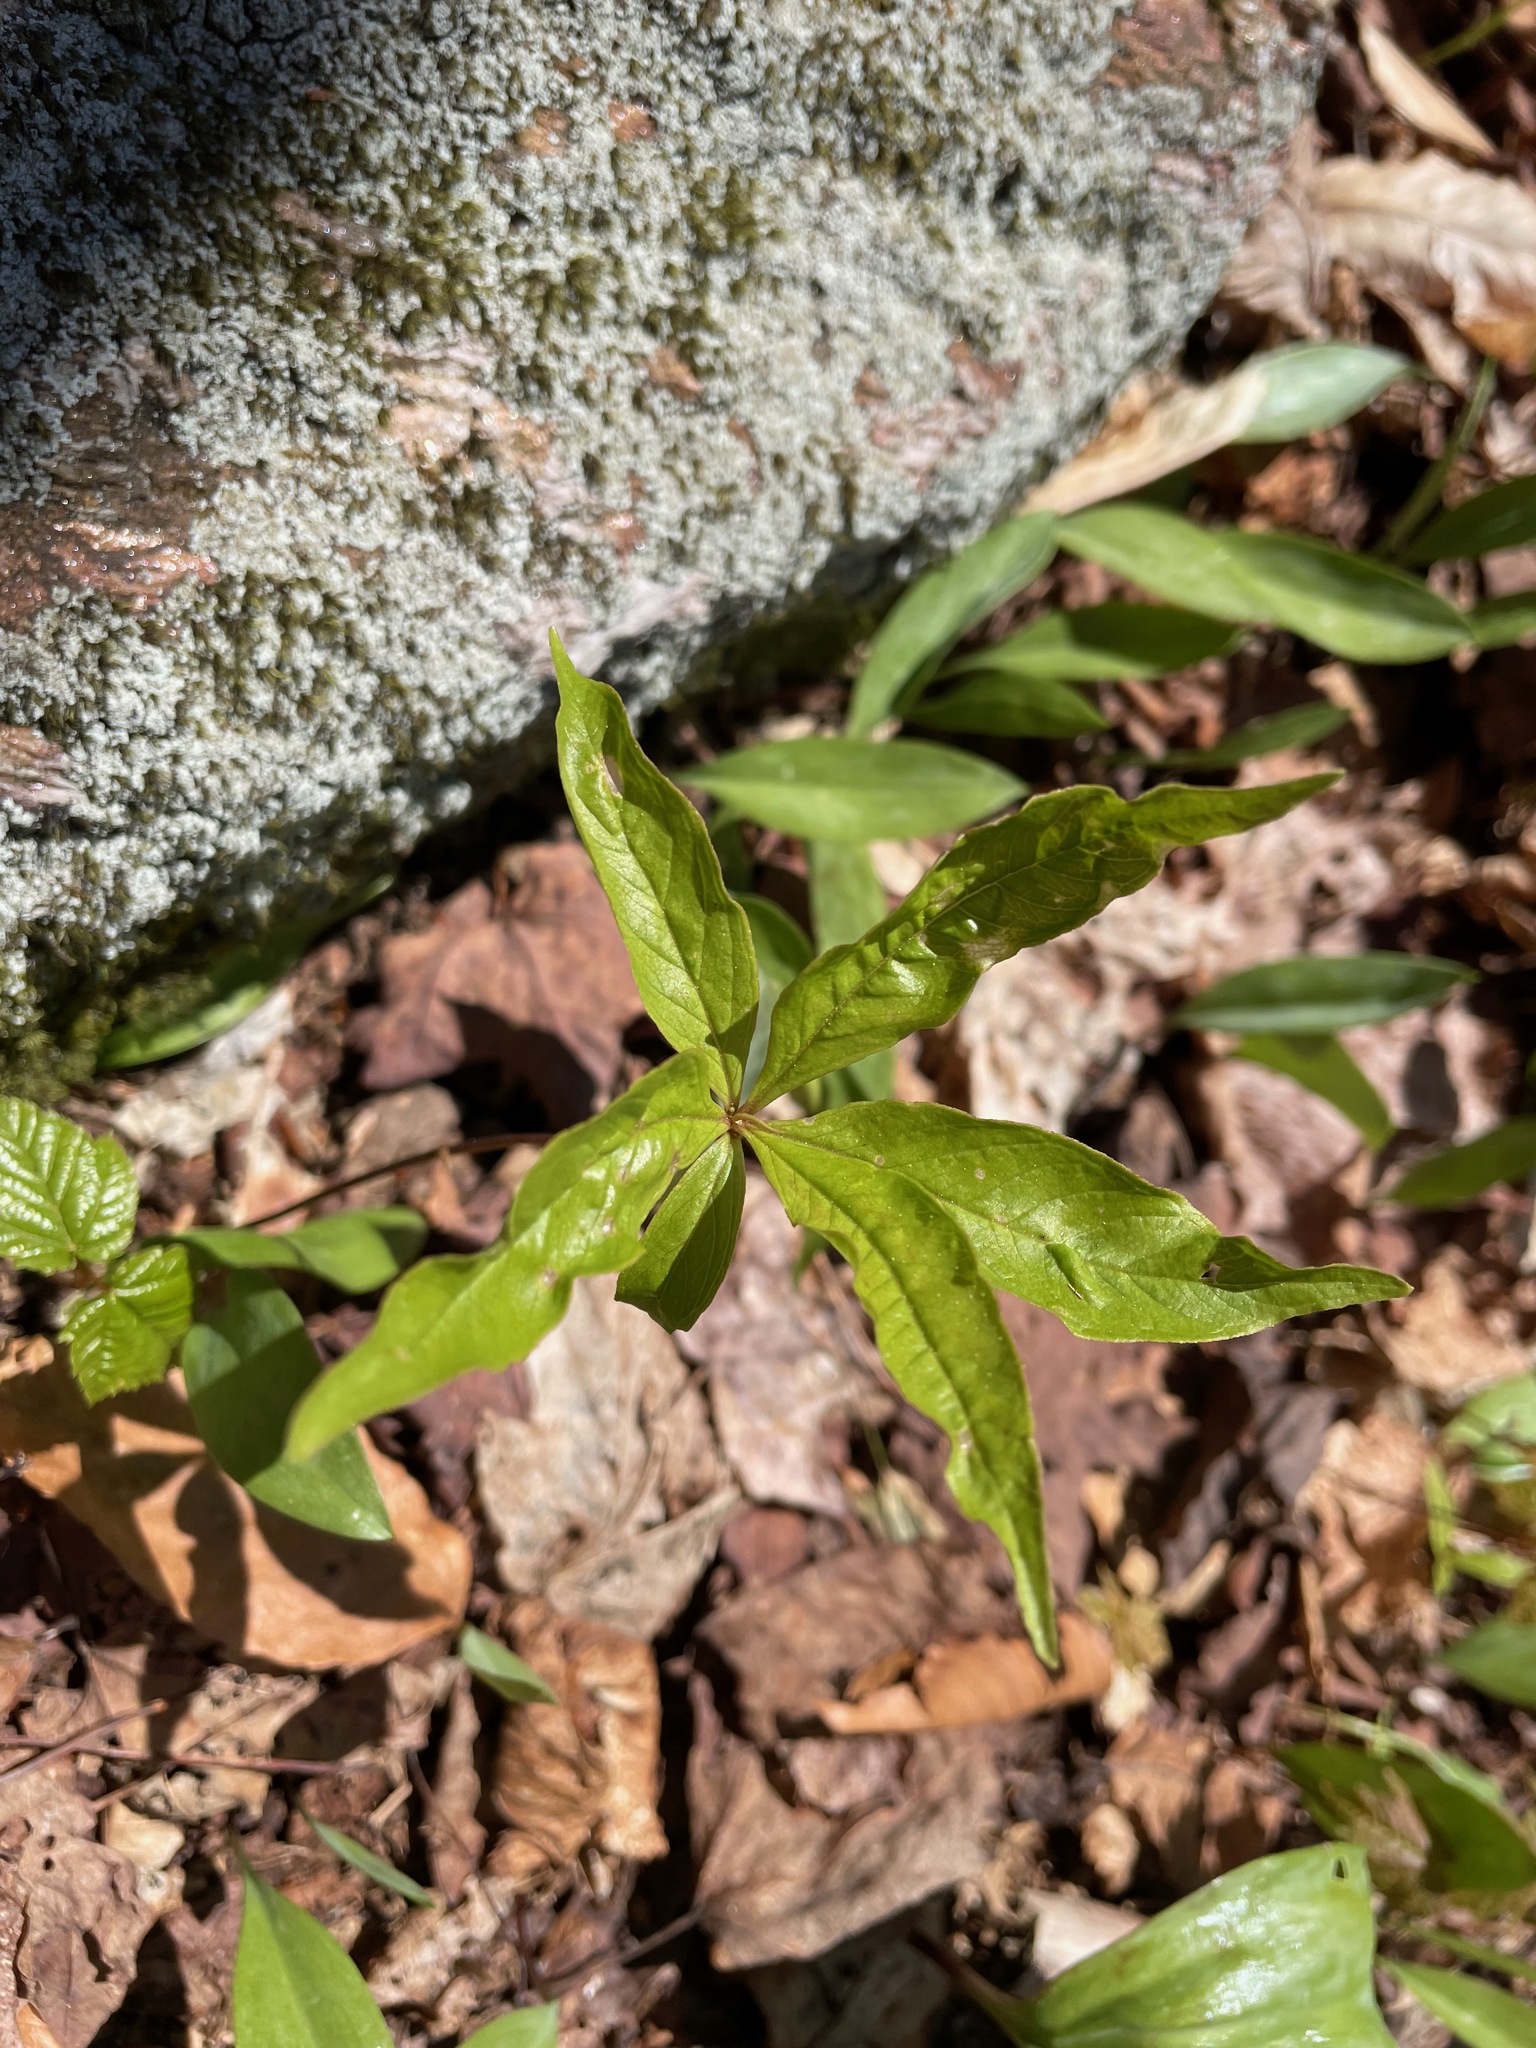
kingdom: Plantae
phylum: Tracheophyta
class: Magnoliopsida
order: Ericales
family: Primulaceae
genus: Lysimachia
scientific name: Lysimachia borealis
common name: American starflower
